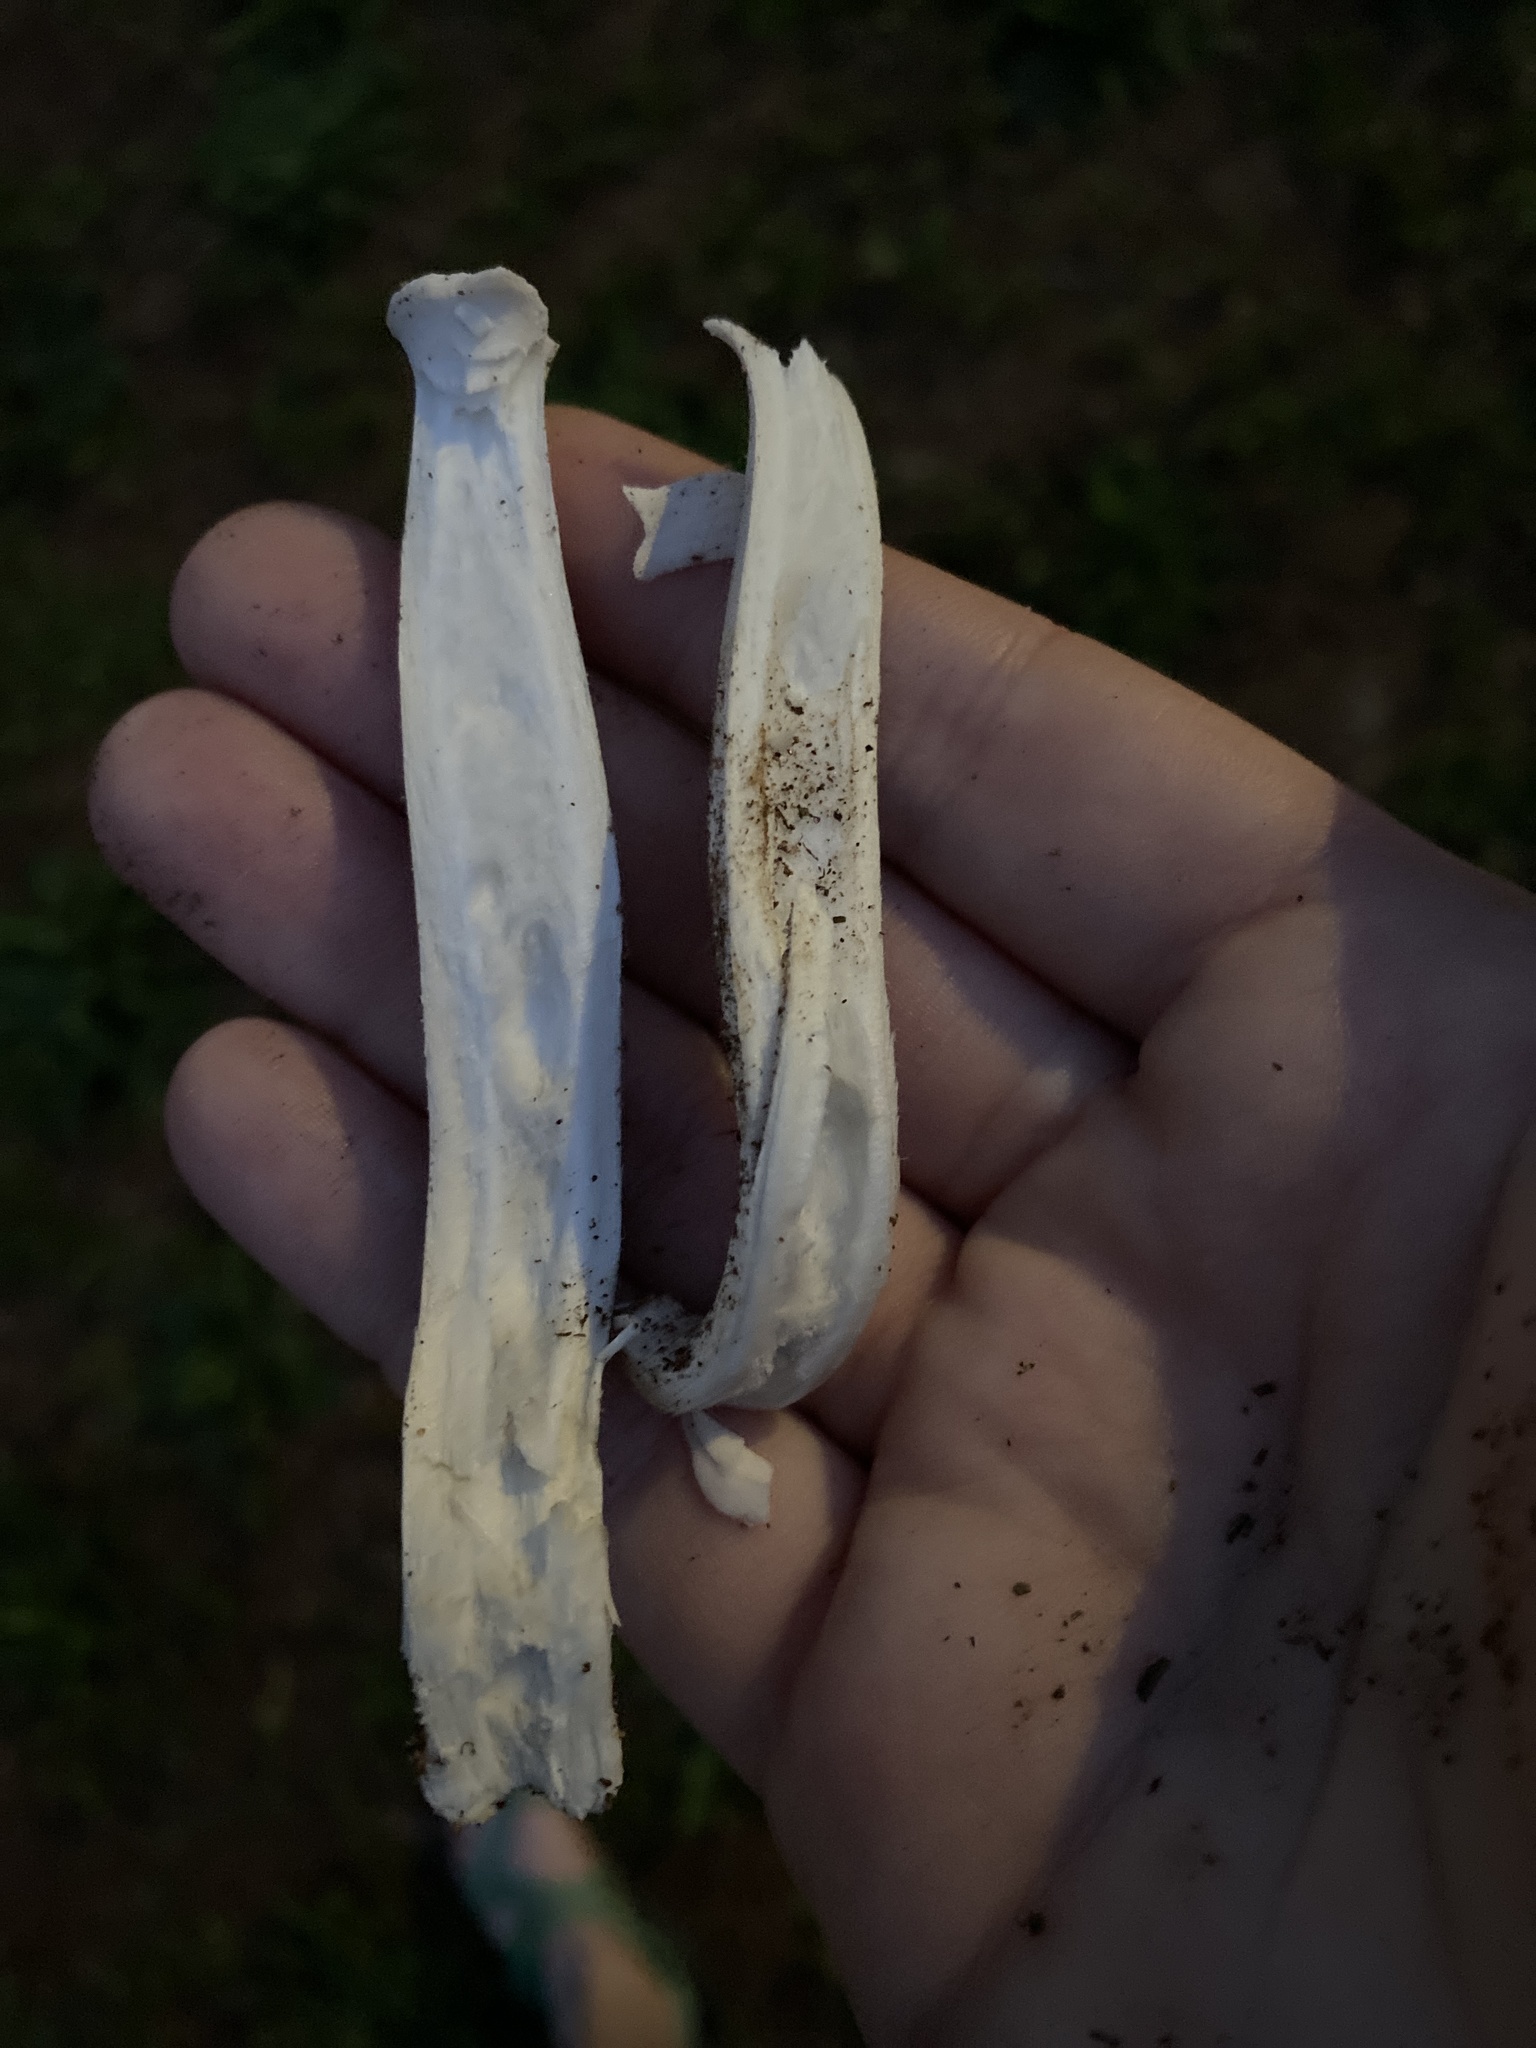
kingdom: Fungi
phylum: Basidiomycota
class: Agaricomycetes
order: Agaricales
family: Amanitaceae
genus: Amanita
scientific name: Amanita vaginata
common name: Grisette
